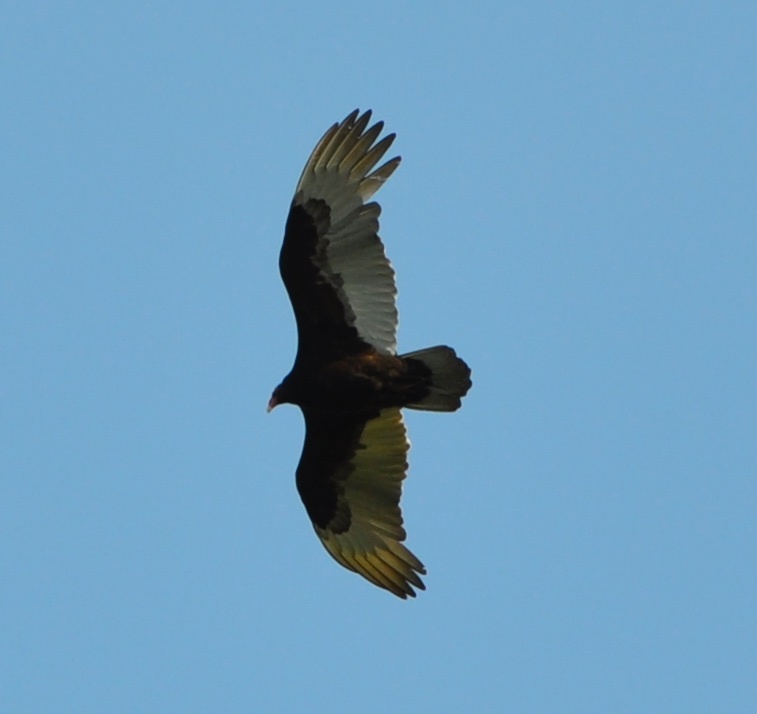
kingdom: Animalia
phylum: Chordata
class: Aves
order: Accipitriformes
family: Cathartidae
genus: Cathartes
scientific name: Cathartes aura
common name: Turkey vulture
